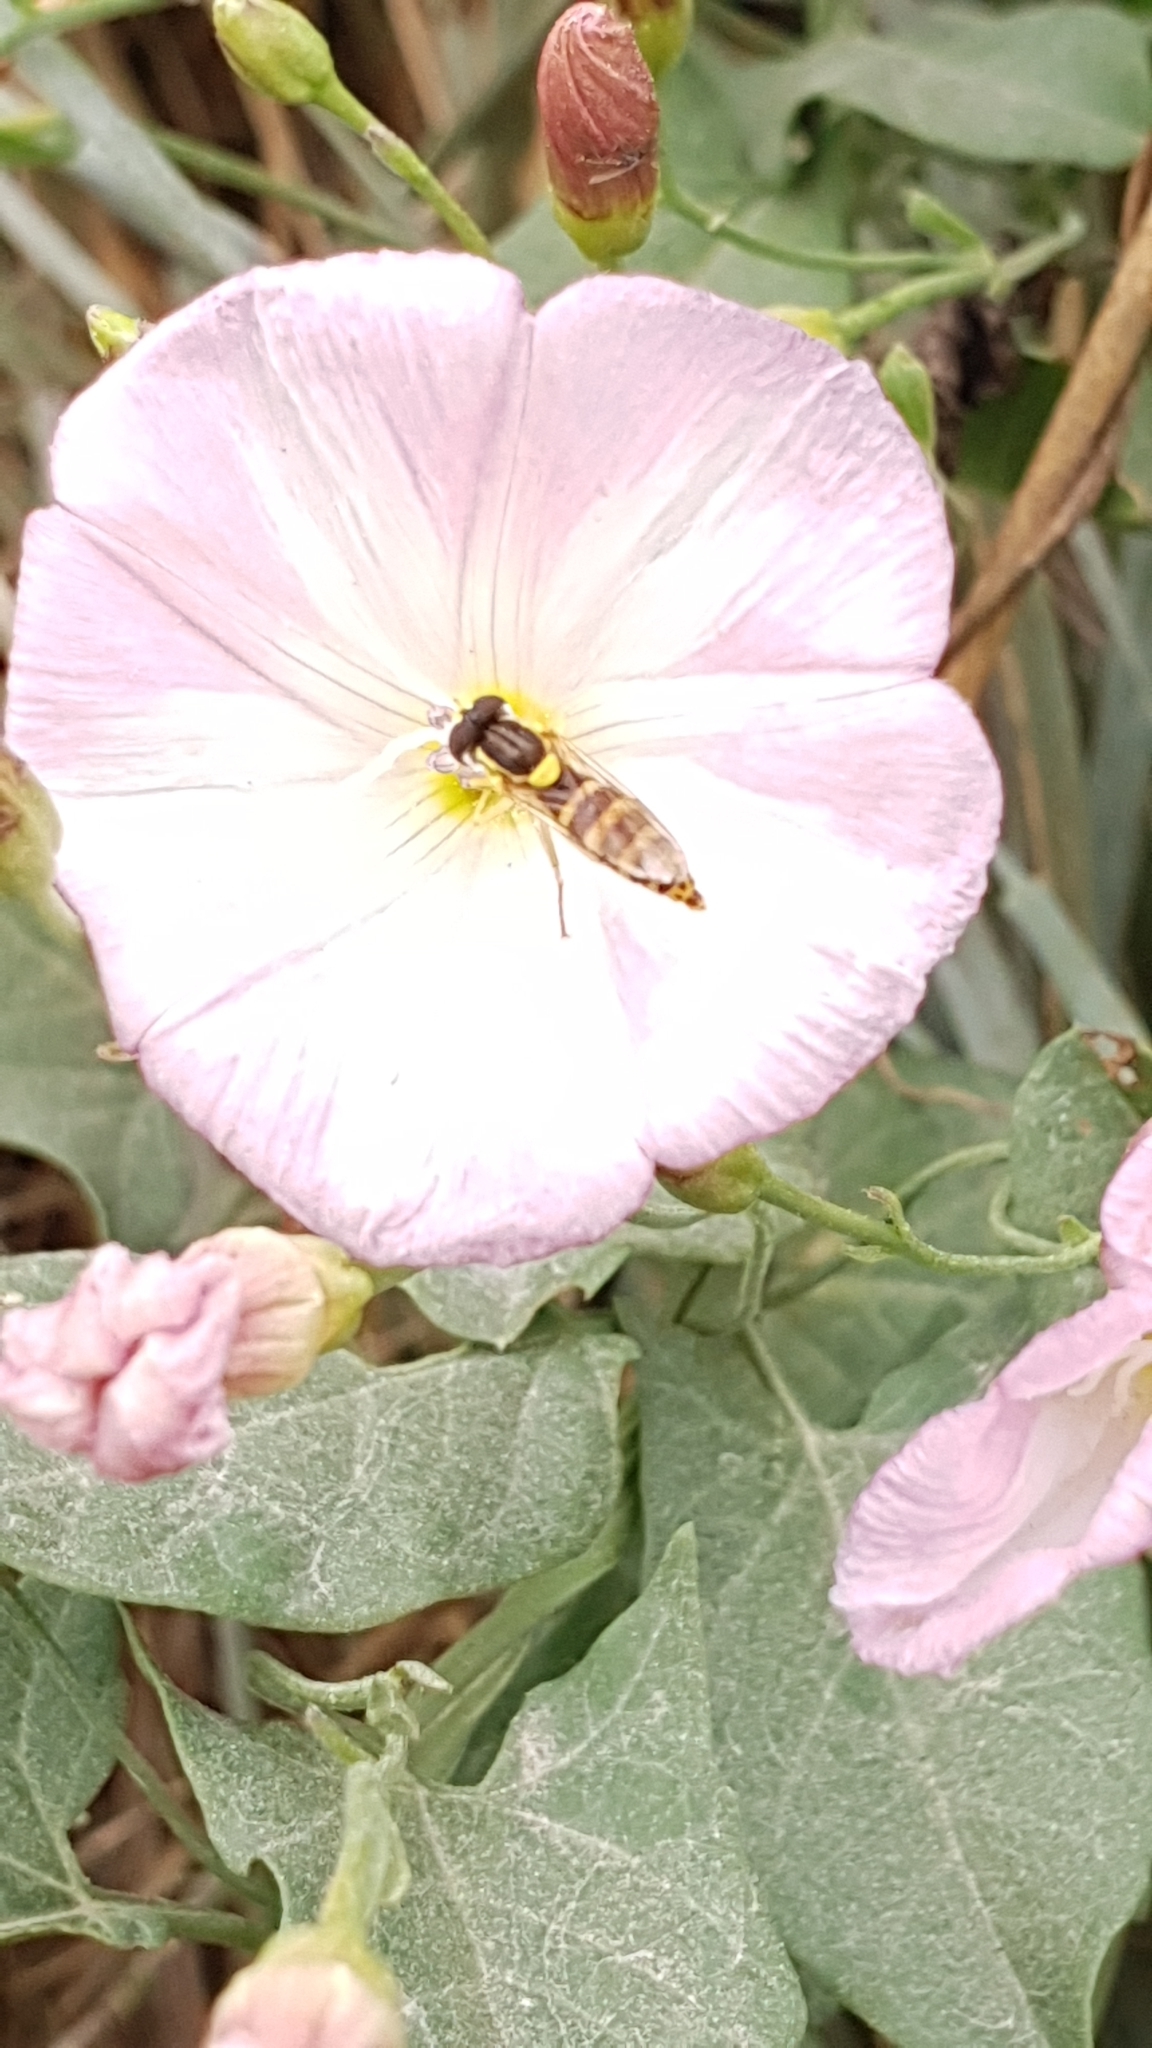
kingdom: Animalia
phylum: Arthropoda
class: Insecta
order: Diptera
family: Syrphidae
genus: Sphaerophoria
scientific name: Sphaerophoria
